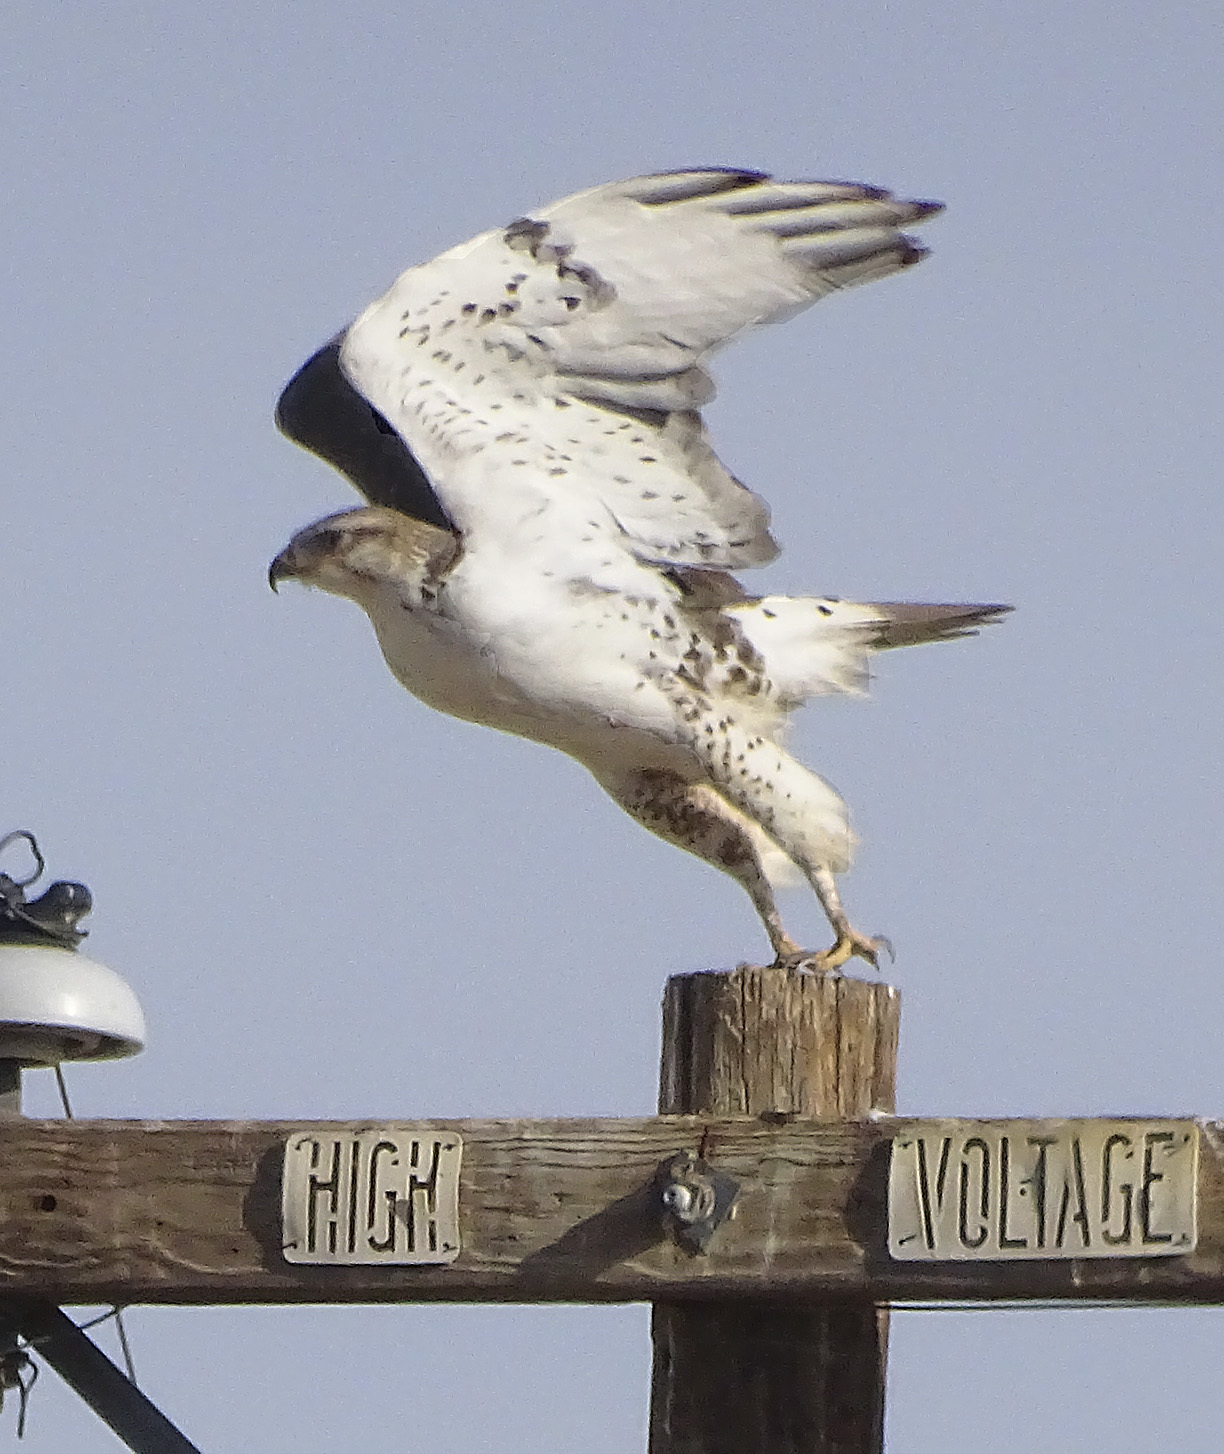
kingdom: Animalia
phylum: Chordata
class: Aves
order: Accipitriformes
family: Accipitridae
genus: Buteo
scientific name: Buteo regalis
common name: Ferruginous hawk
